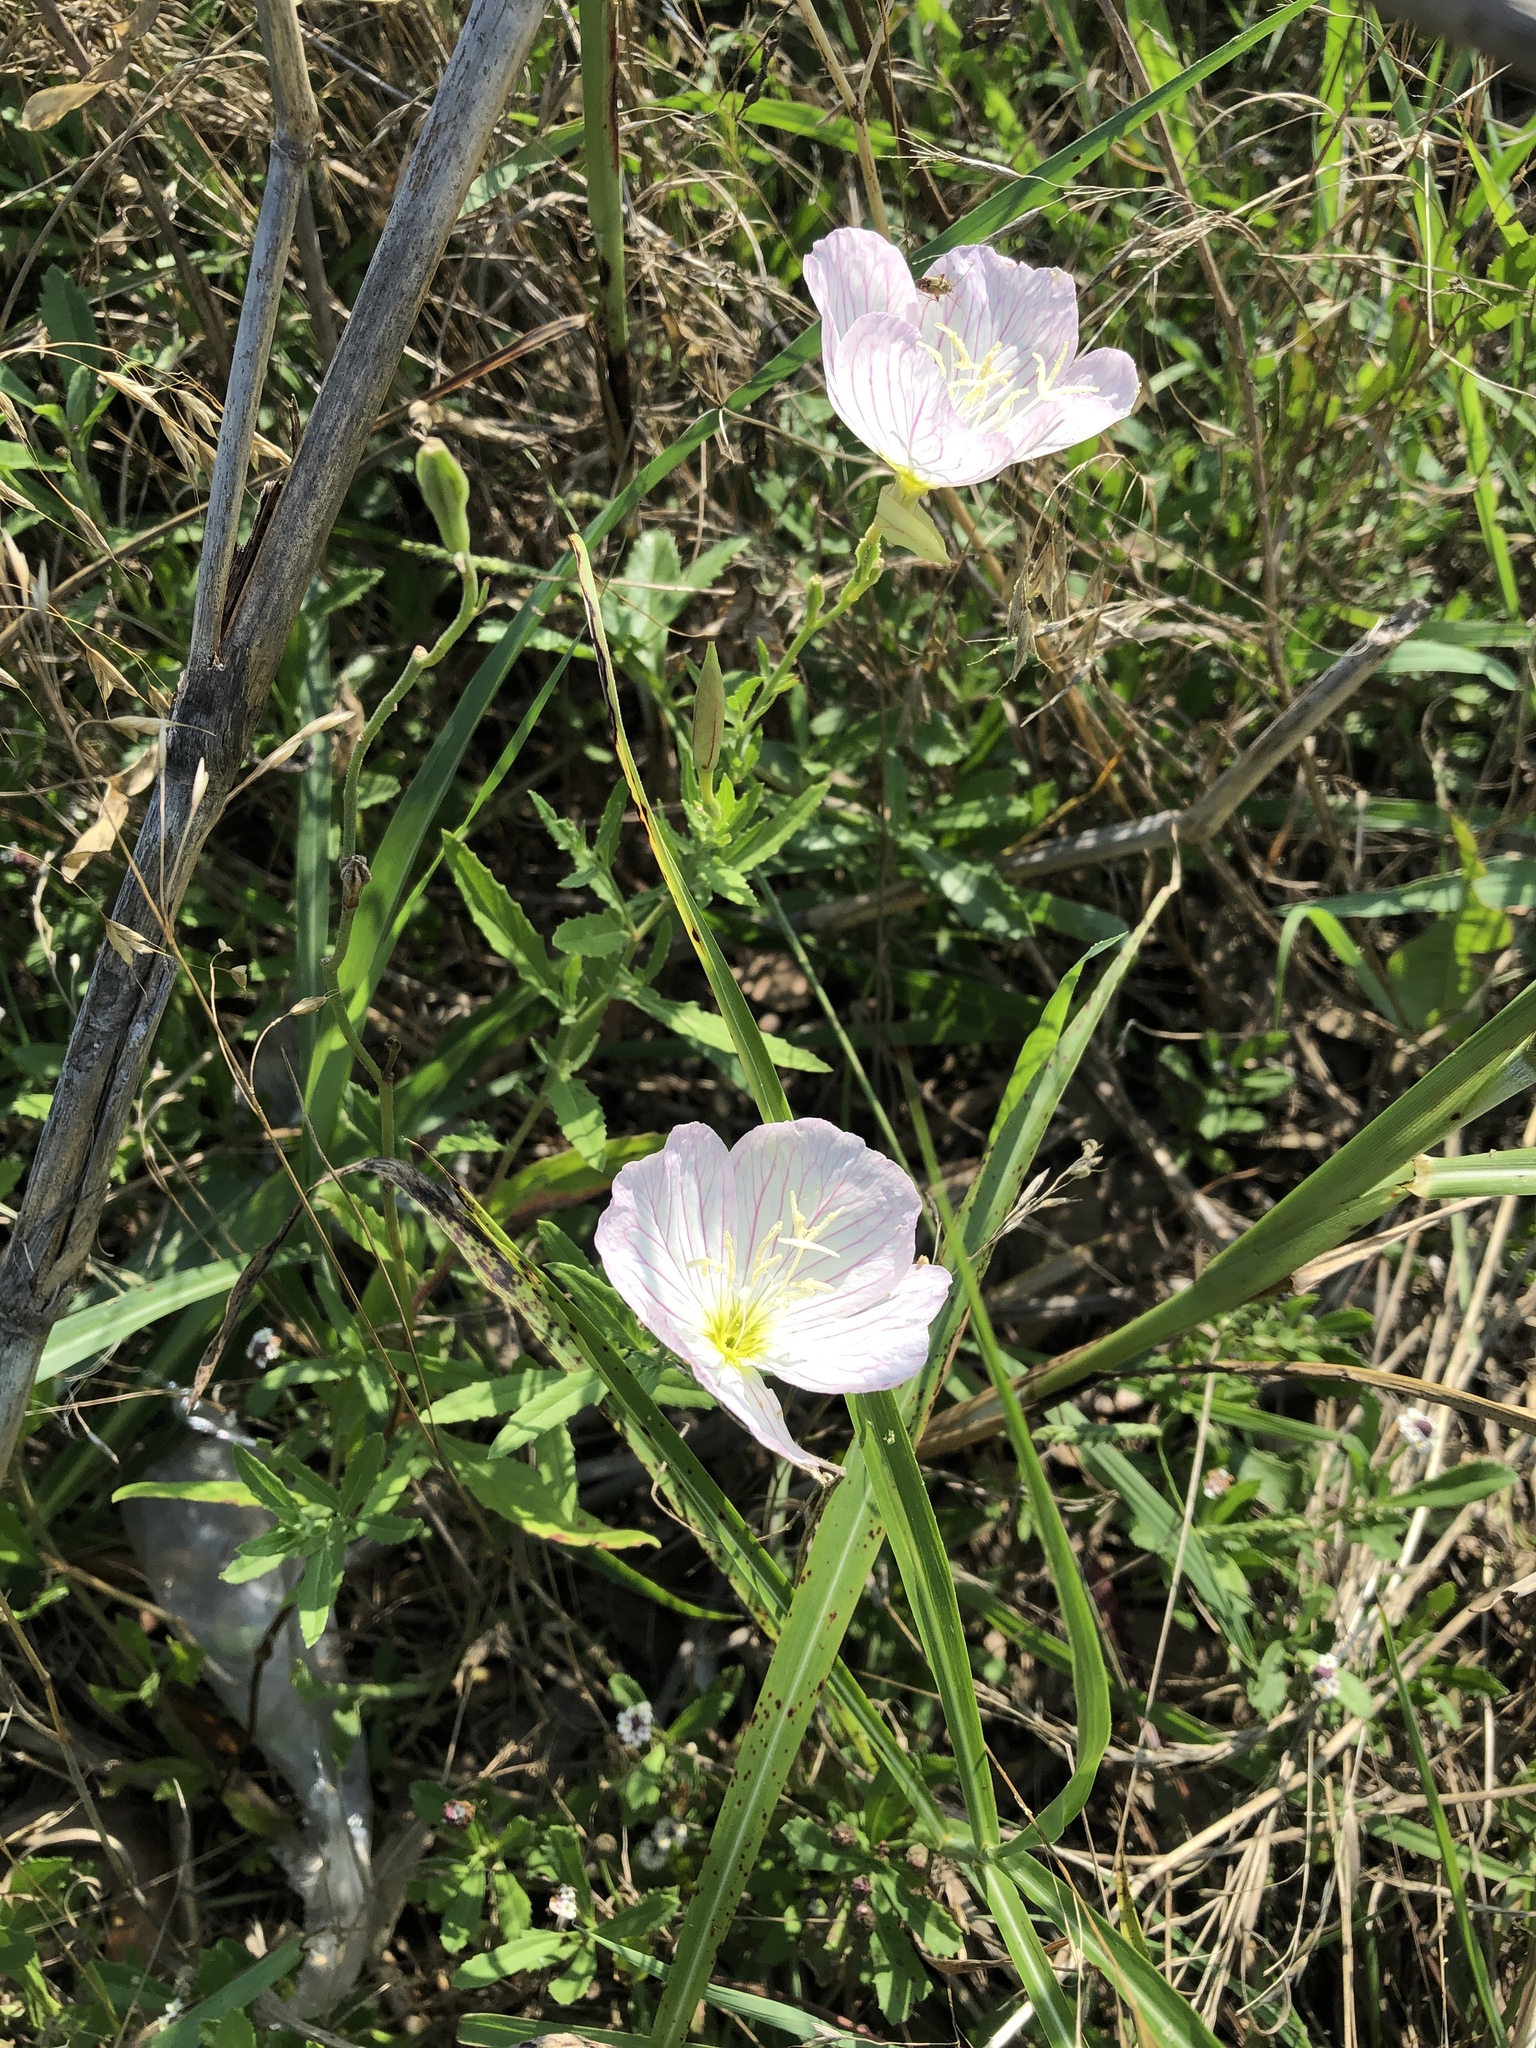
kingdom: Plantae
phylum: Tracheophyta
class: Magnoliopsida
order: Myrtales
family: Onagraceae
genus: Oenothera
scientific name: Oenothera speciosa
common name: White evening-primrose
